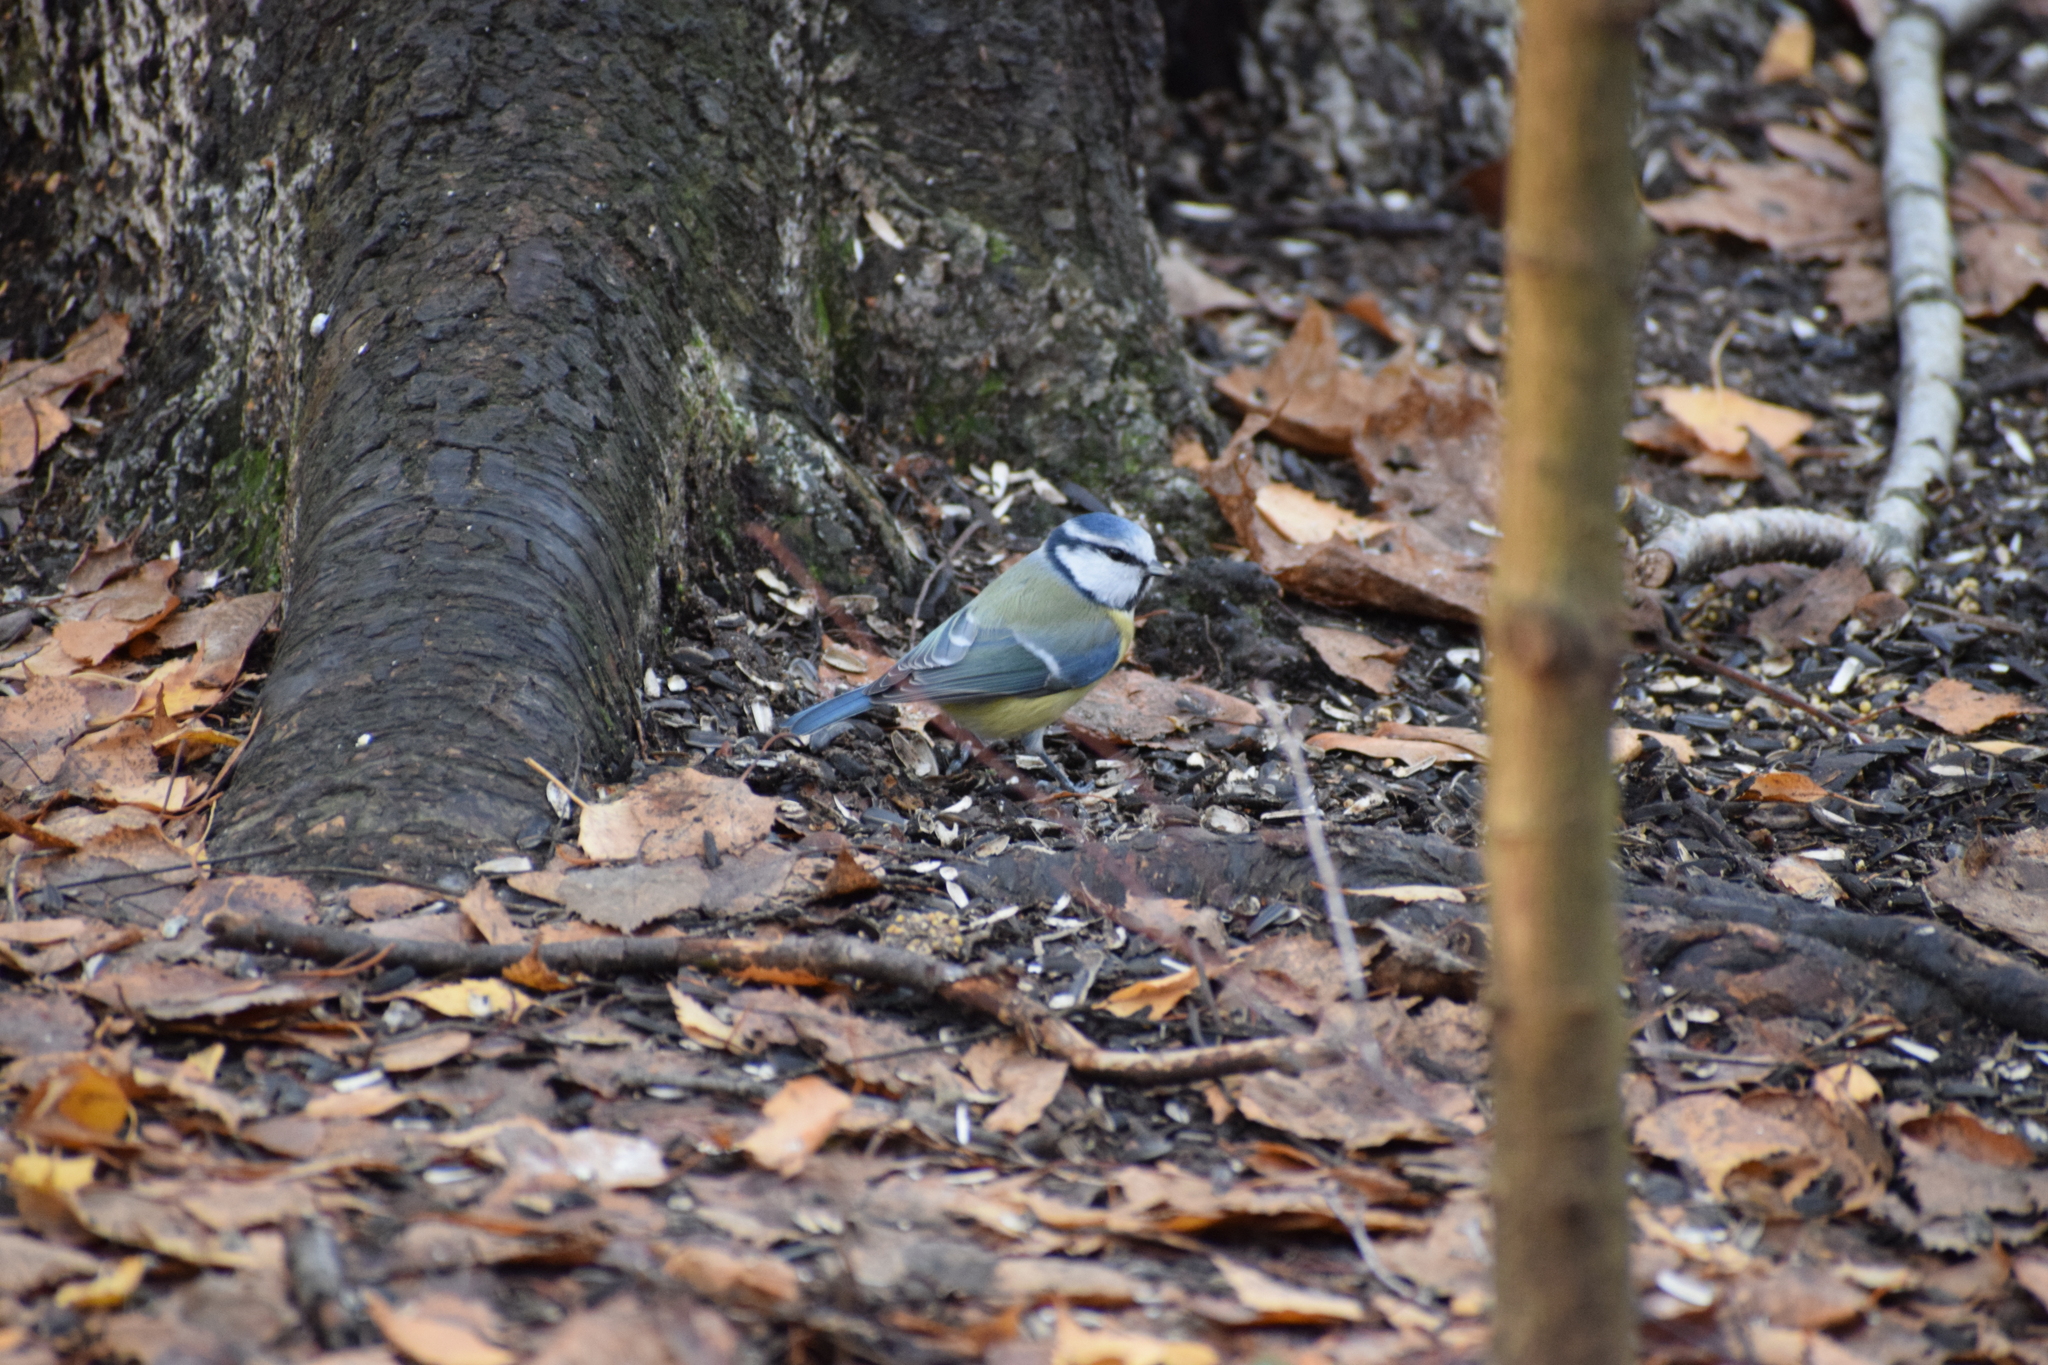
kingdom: Animalia
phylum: Chordata
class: Aves
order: Passeriformes
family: Paridae
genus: Cyanistes
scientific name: Cyanistes caeruleus
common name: Eurasian blue tit
